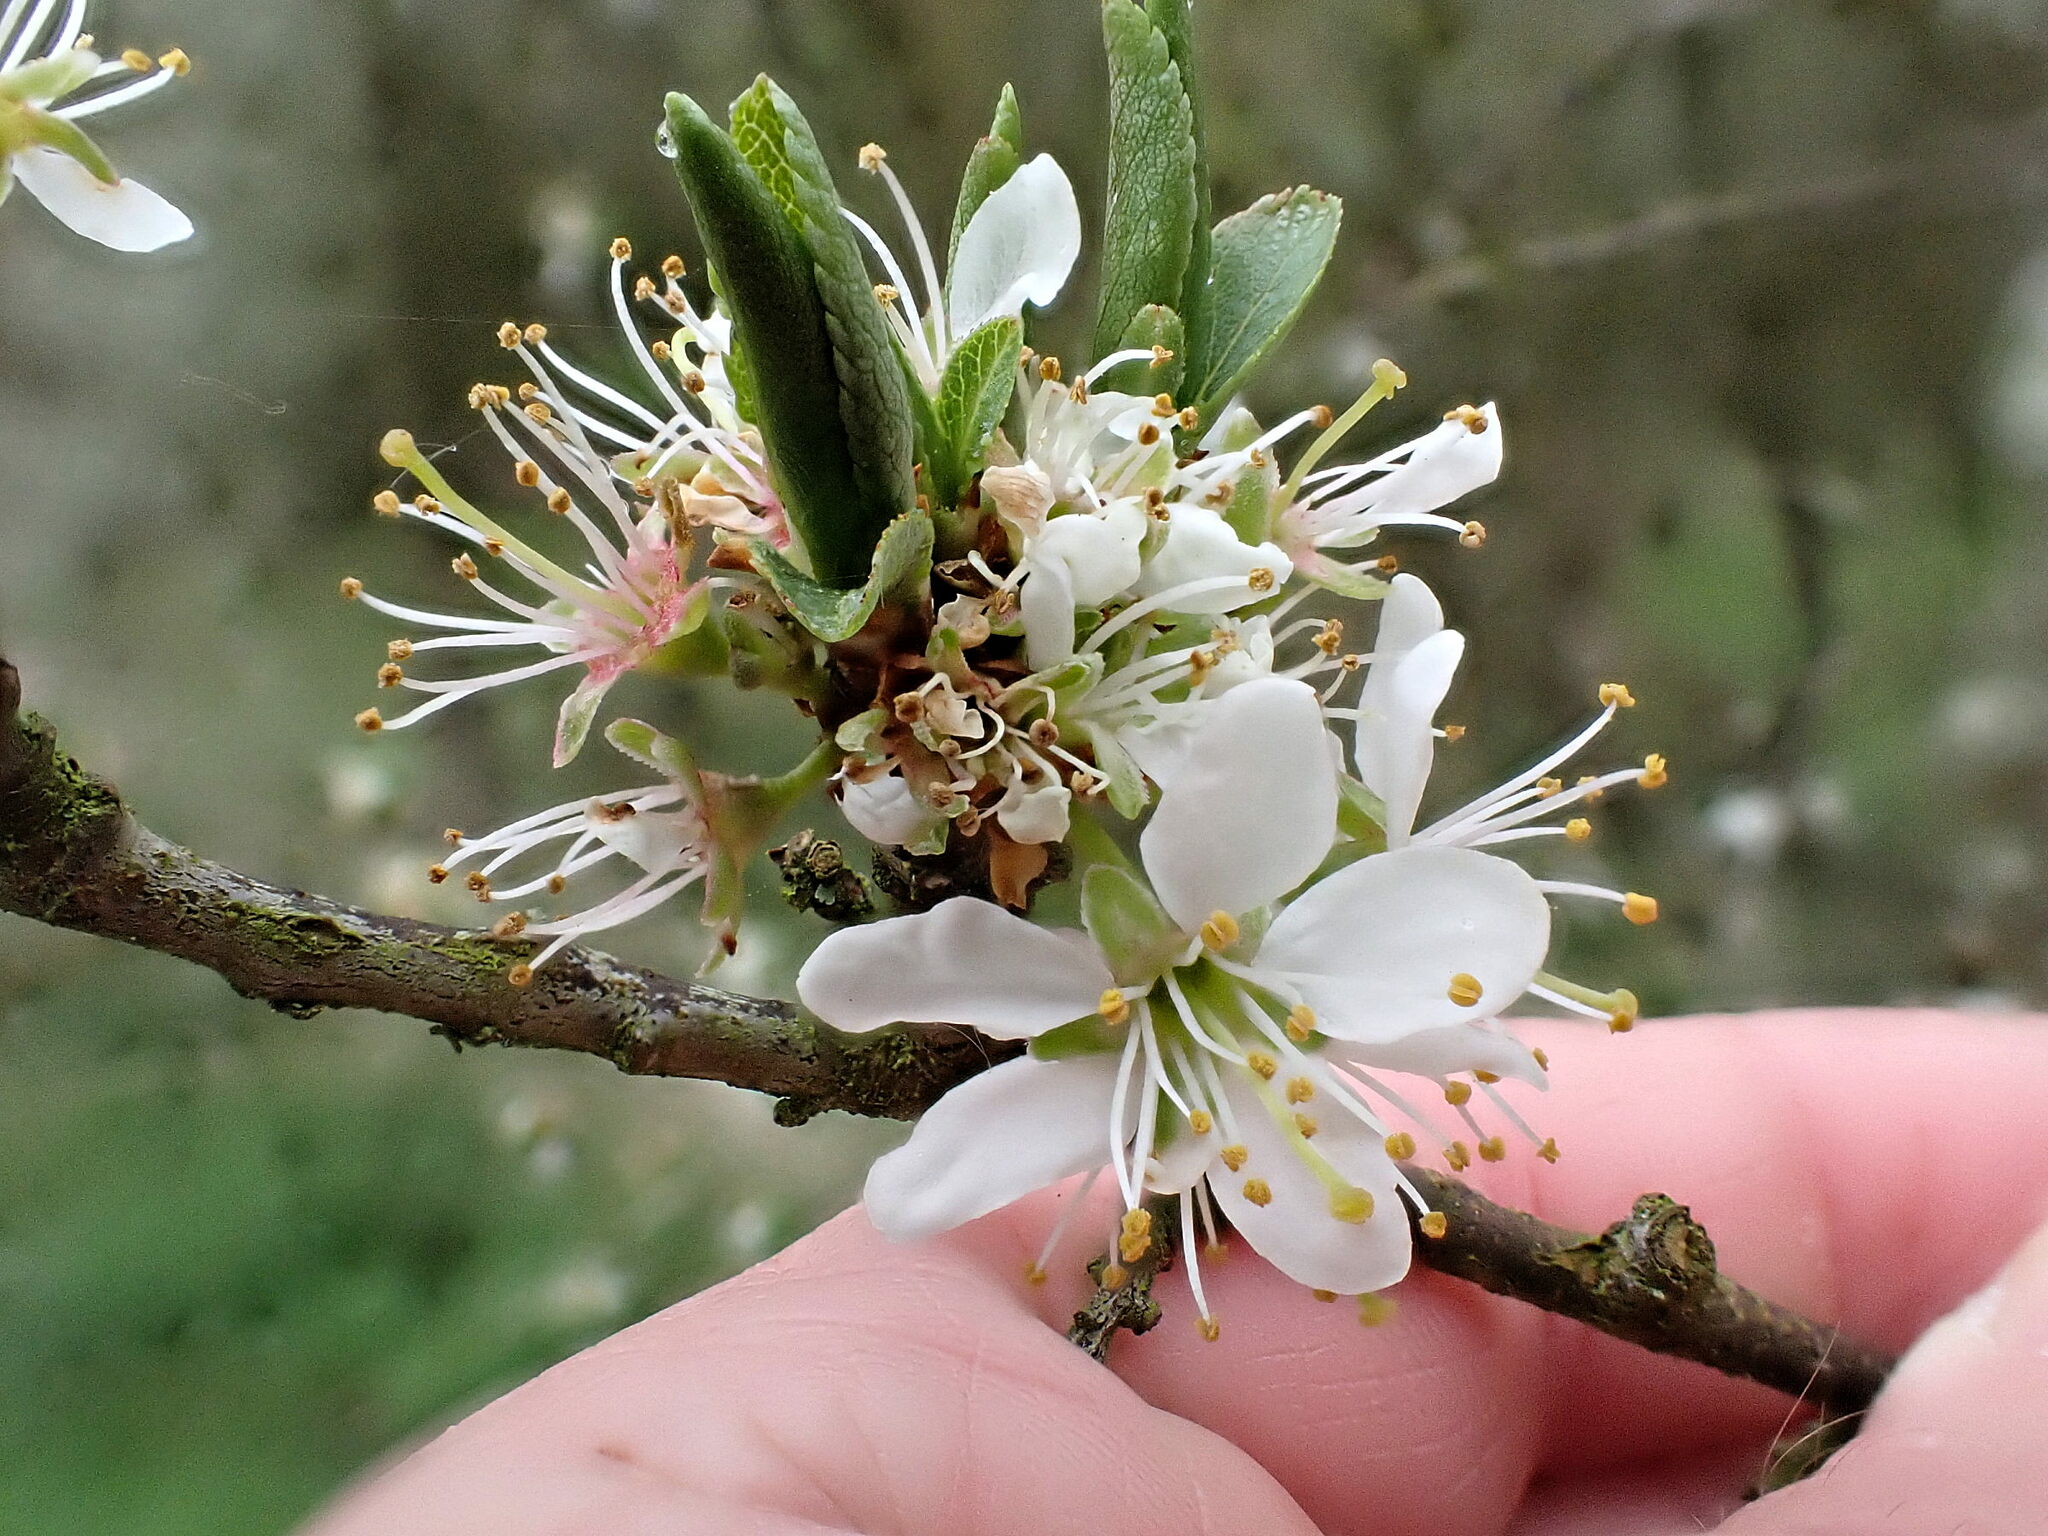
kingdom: Plantae
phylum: Tracheophyta
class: Magnoliopsida
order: Rosales
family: Rosaceae
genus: Prunus
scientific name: Prunus spinosa
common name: Blackthorn
